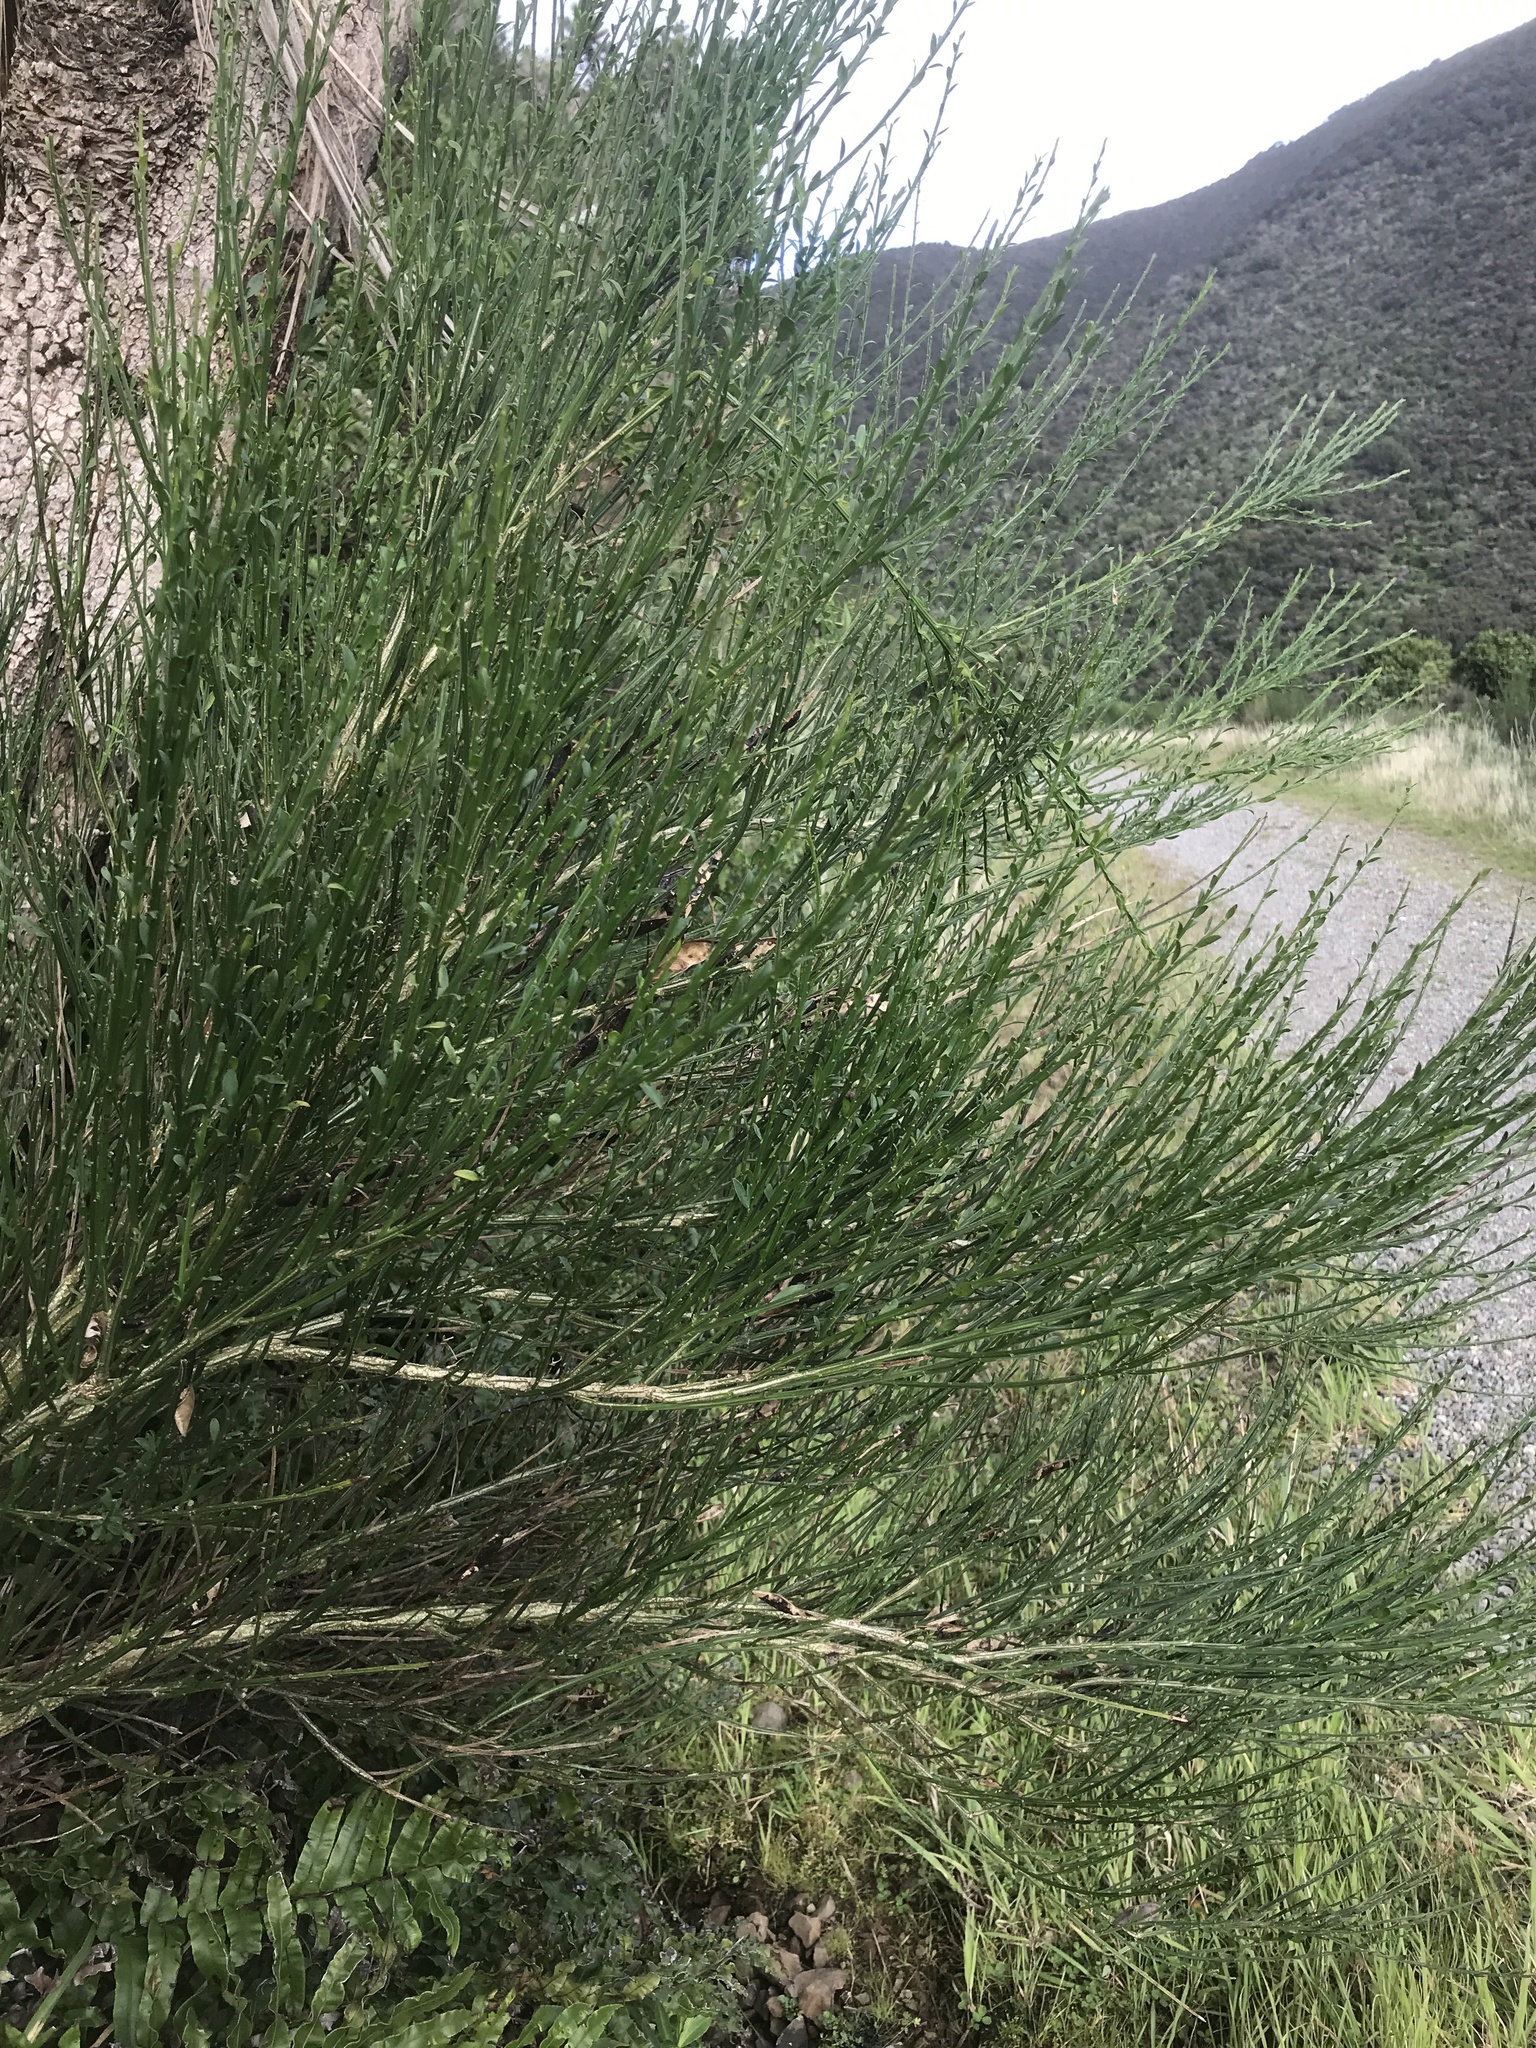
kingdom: Plantae
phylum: Tracheophyta
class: Magnoliopsida
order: Fabales
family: Fabaceae
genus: Cytisus
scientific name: Cytisus scoparius
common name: Scotch broom
